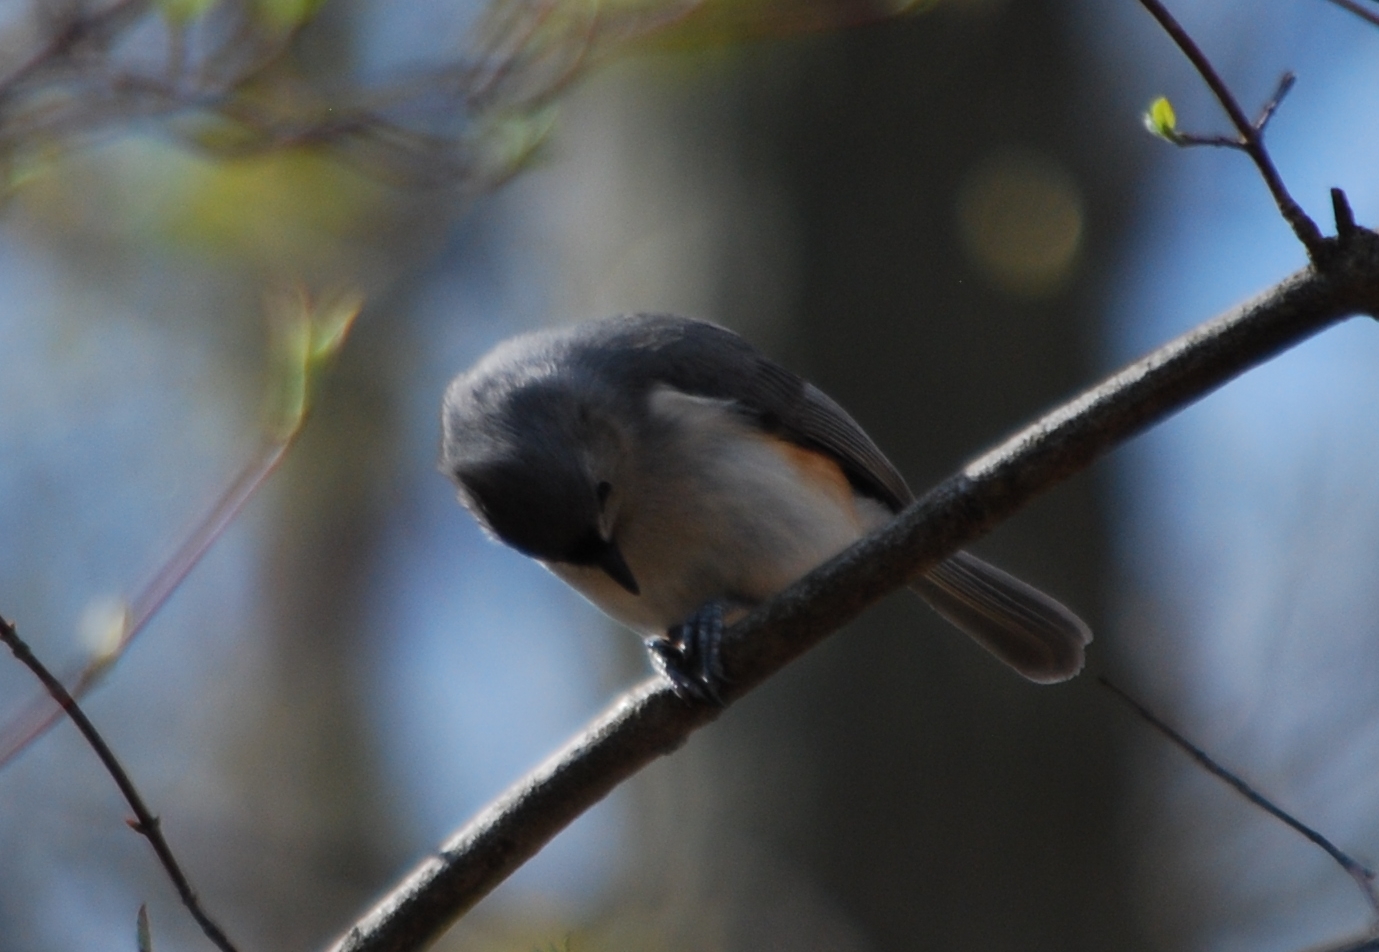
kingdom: Animalia
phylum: Chordata
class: Aves
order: Passeriformes
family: Paridae
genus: Baeolophus
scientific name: Baeolophus bicolor
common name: Tufted titmouse
